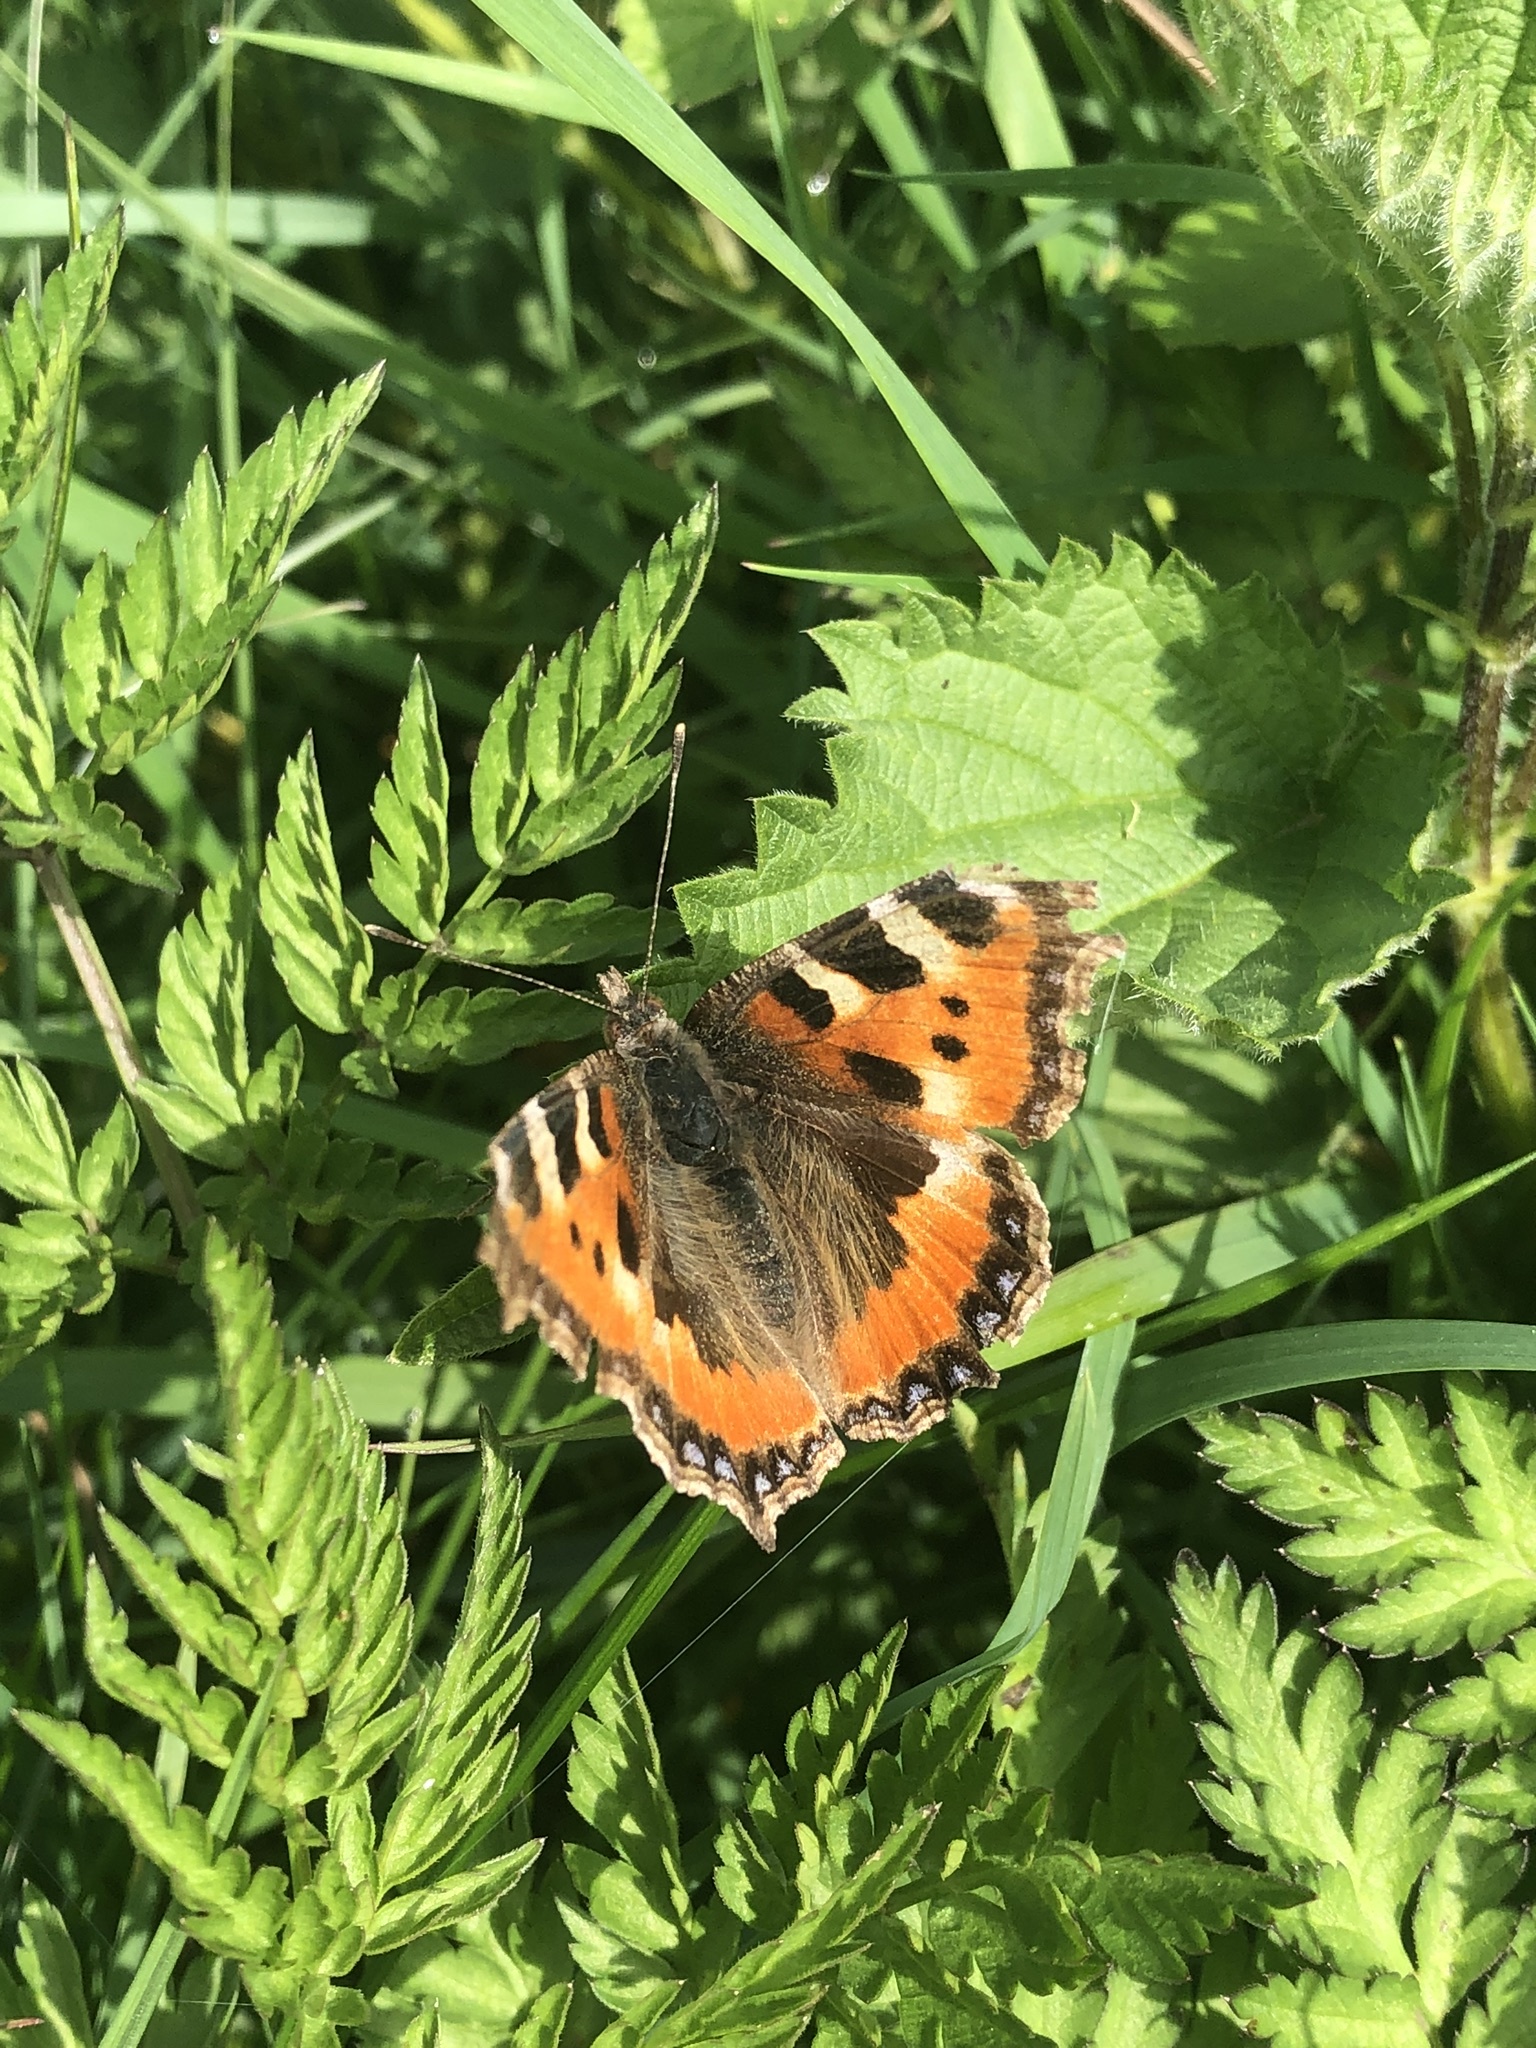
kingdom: Animalia
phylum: Arthropoda
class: Insecta
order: Lepidoptera
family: Nymphalidae
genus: Aglais
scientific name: Aglais urticae
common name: Small tortoiseshell
